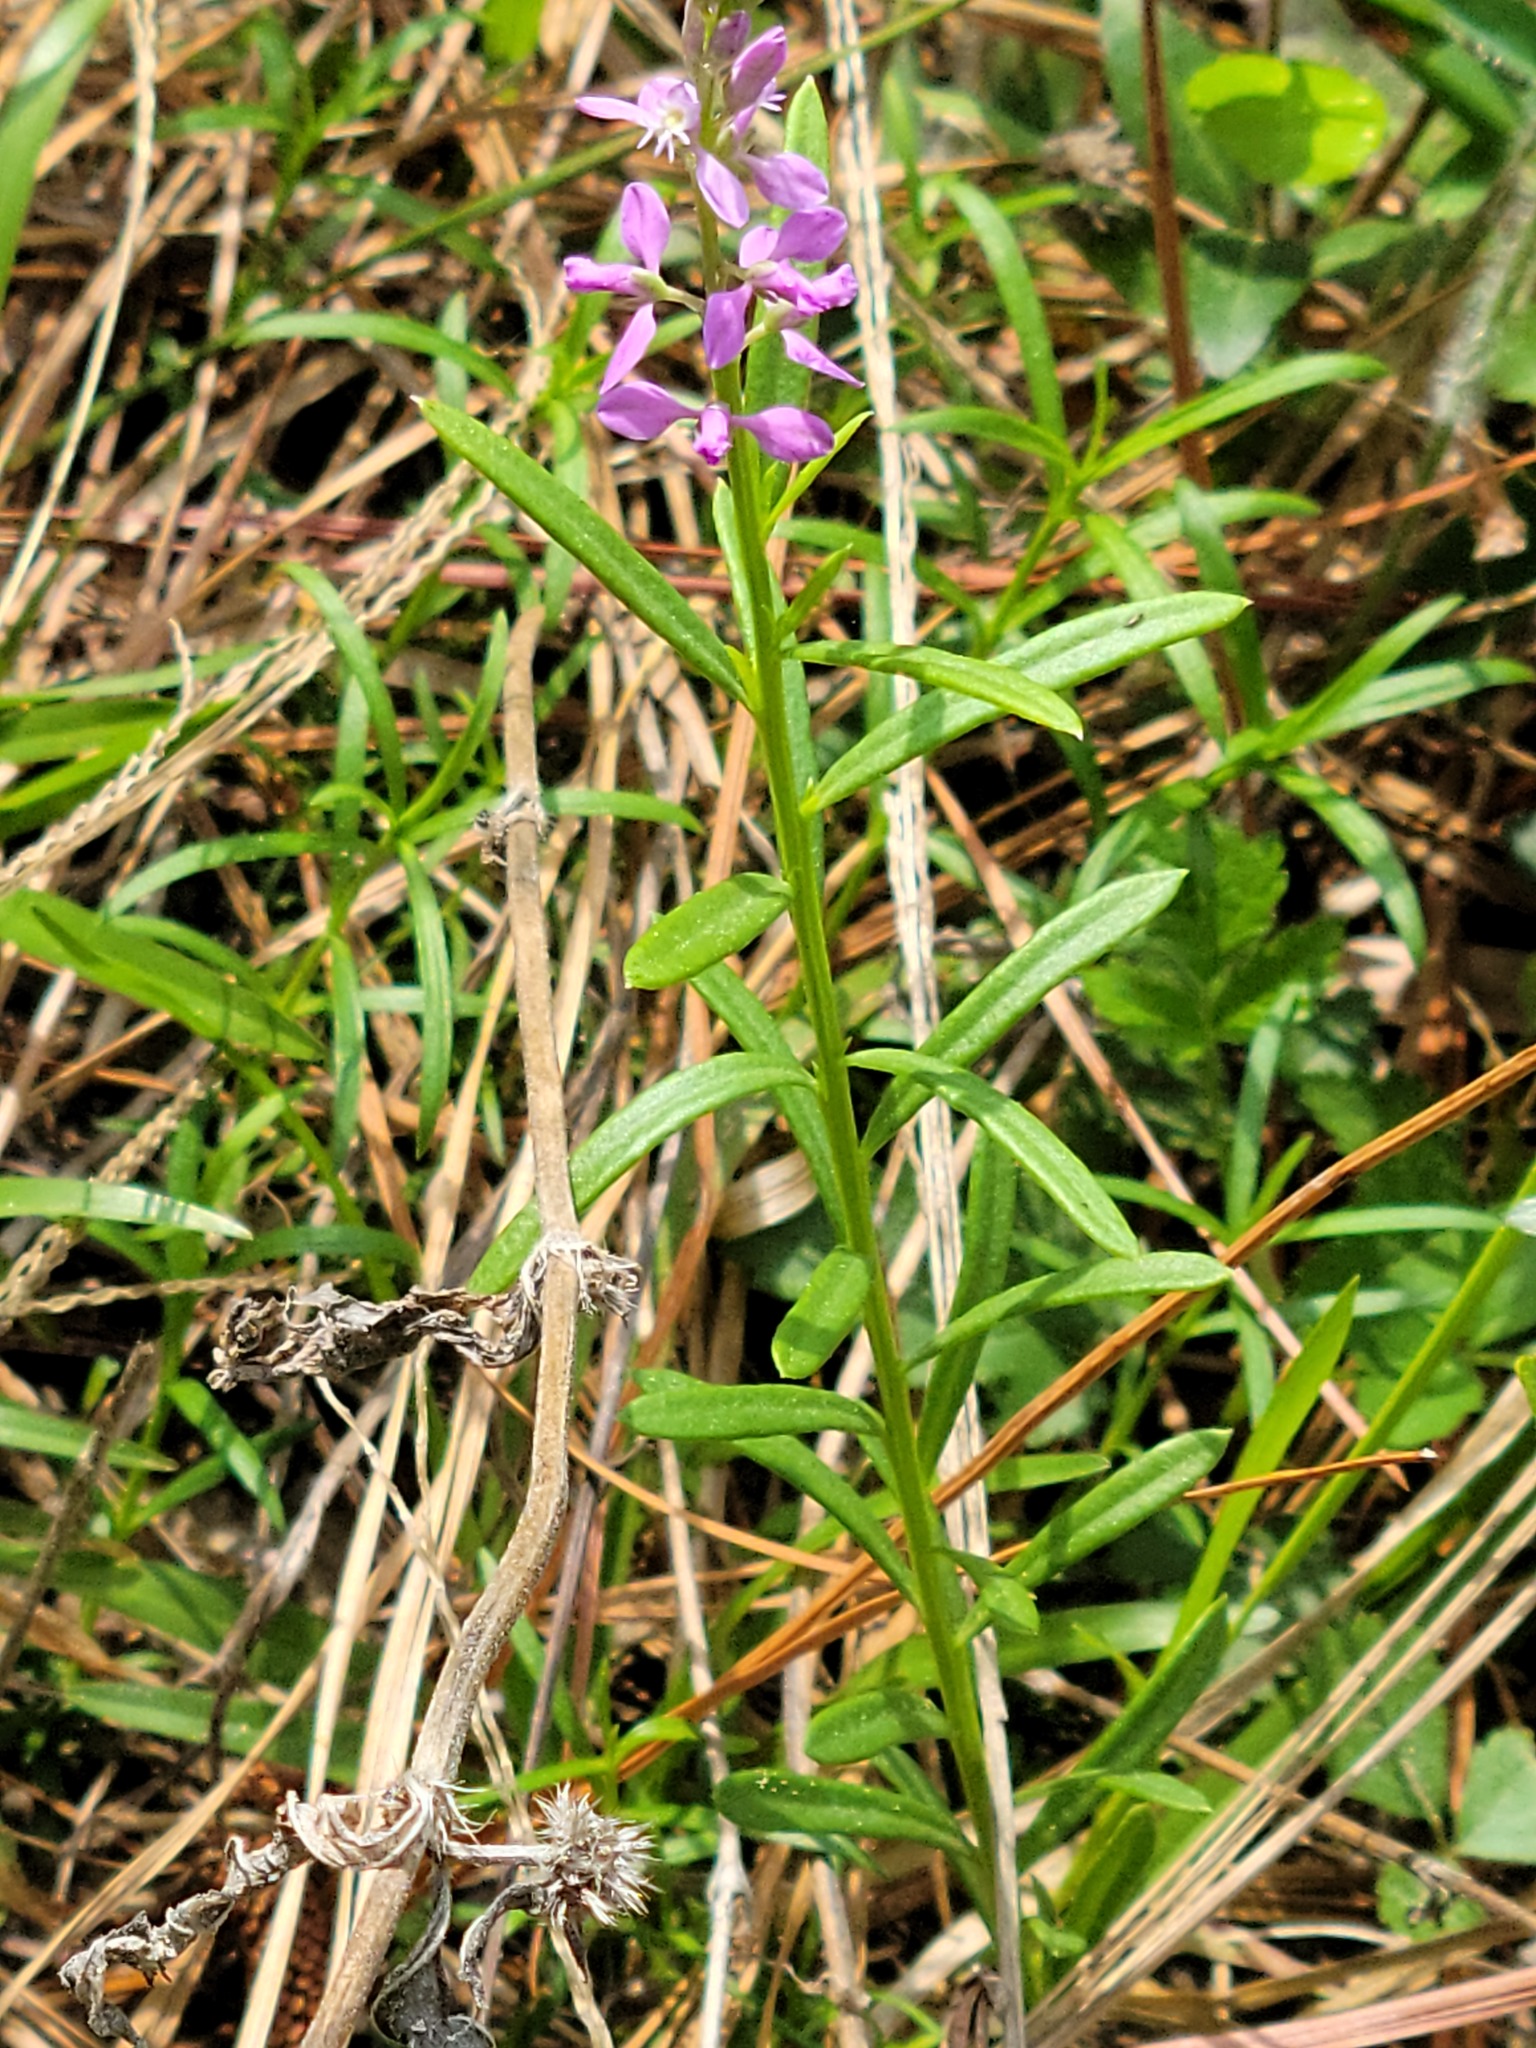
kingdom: Plantae
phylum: Tracheophyta
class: Magnoliopsida
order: Fabales
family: Polygalaceae
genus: Polygala
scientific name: Polygala polygama
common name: Bitter milkwort
